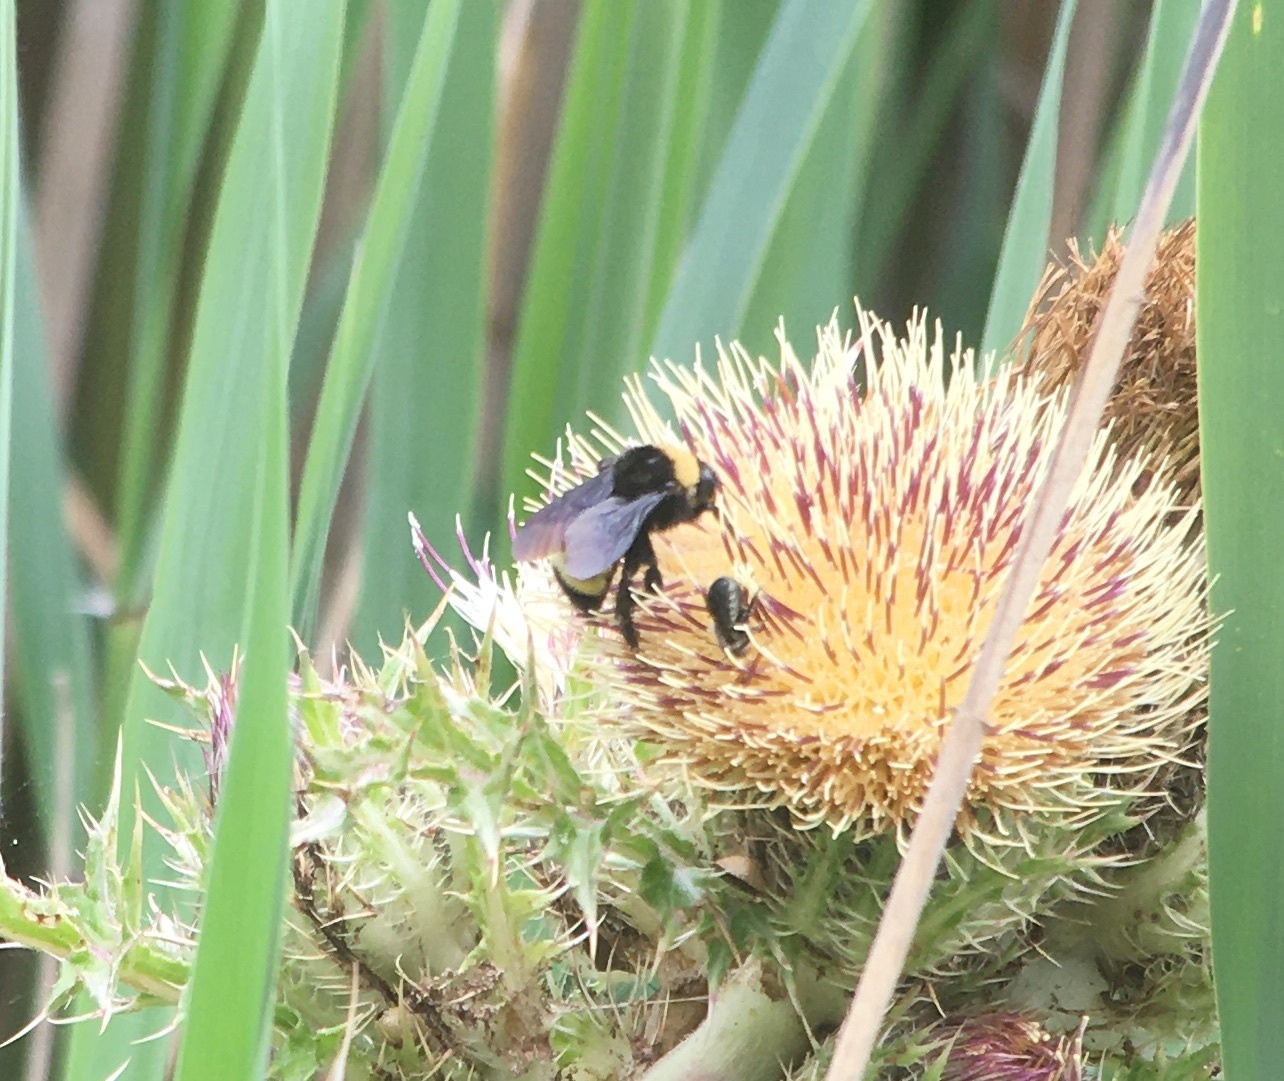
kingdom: Animalia
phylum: Arthropoda
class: Insecta
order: Hymenoptera
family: Apidae
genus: Bombus
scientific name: Bombus pensylvanicus
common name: Bumble bee
